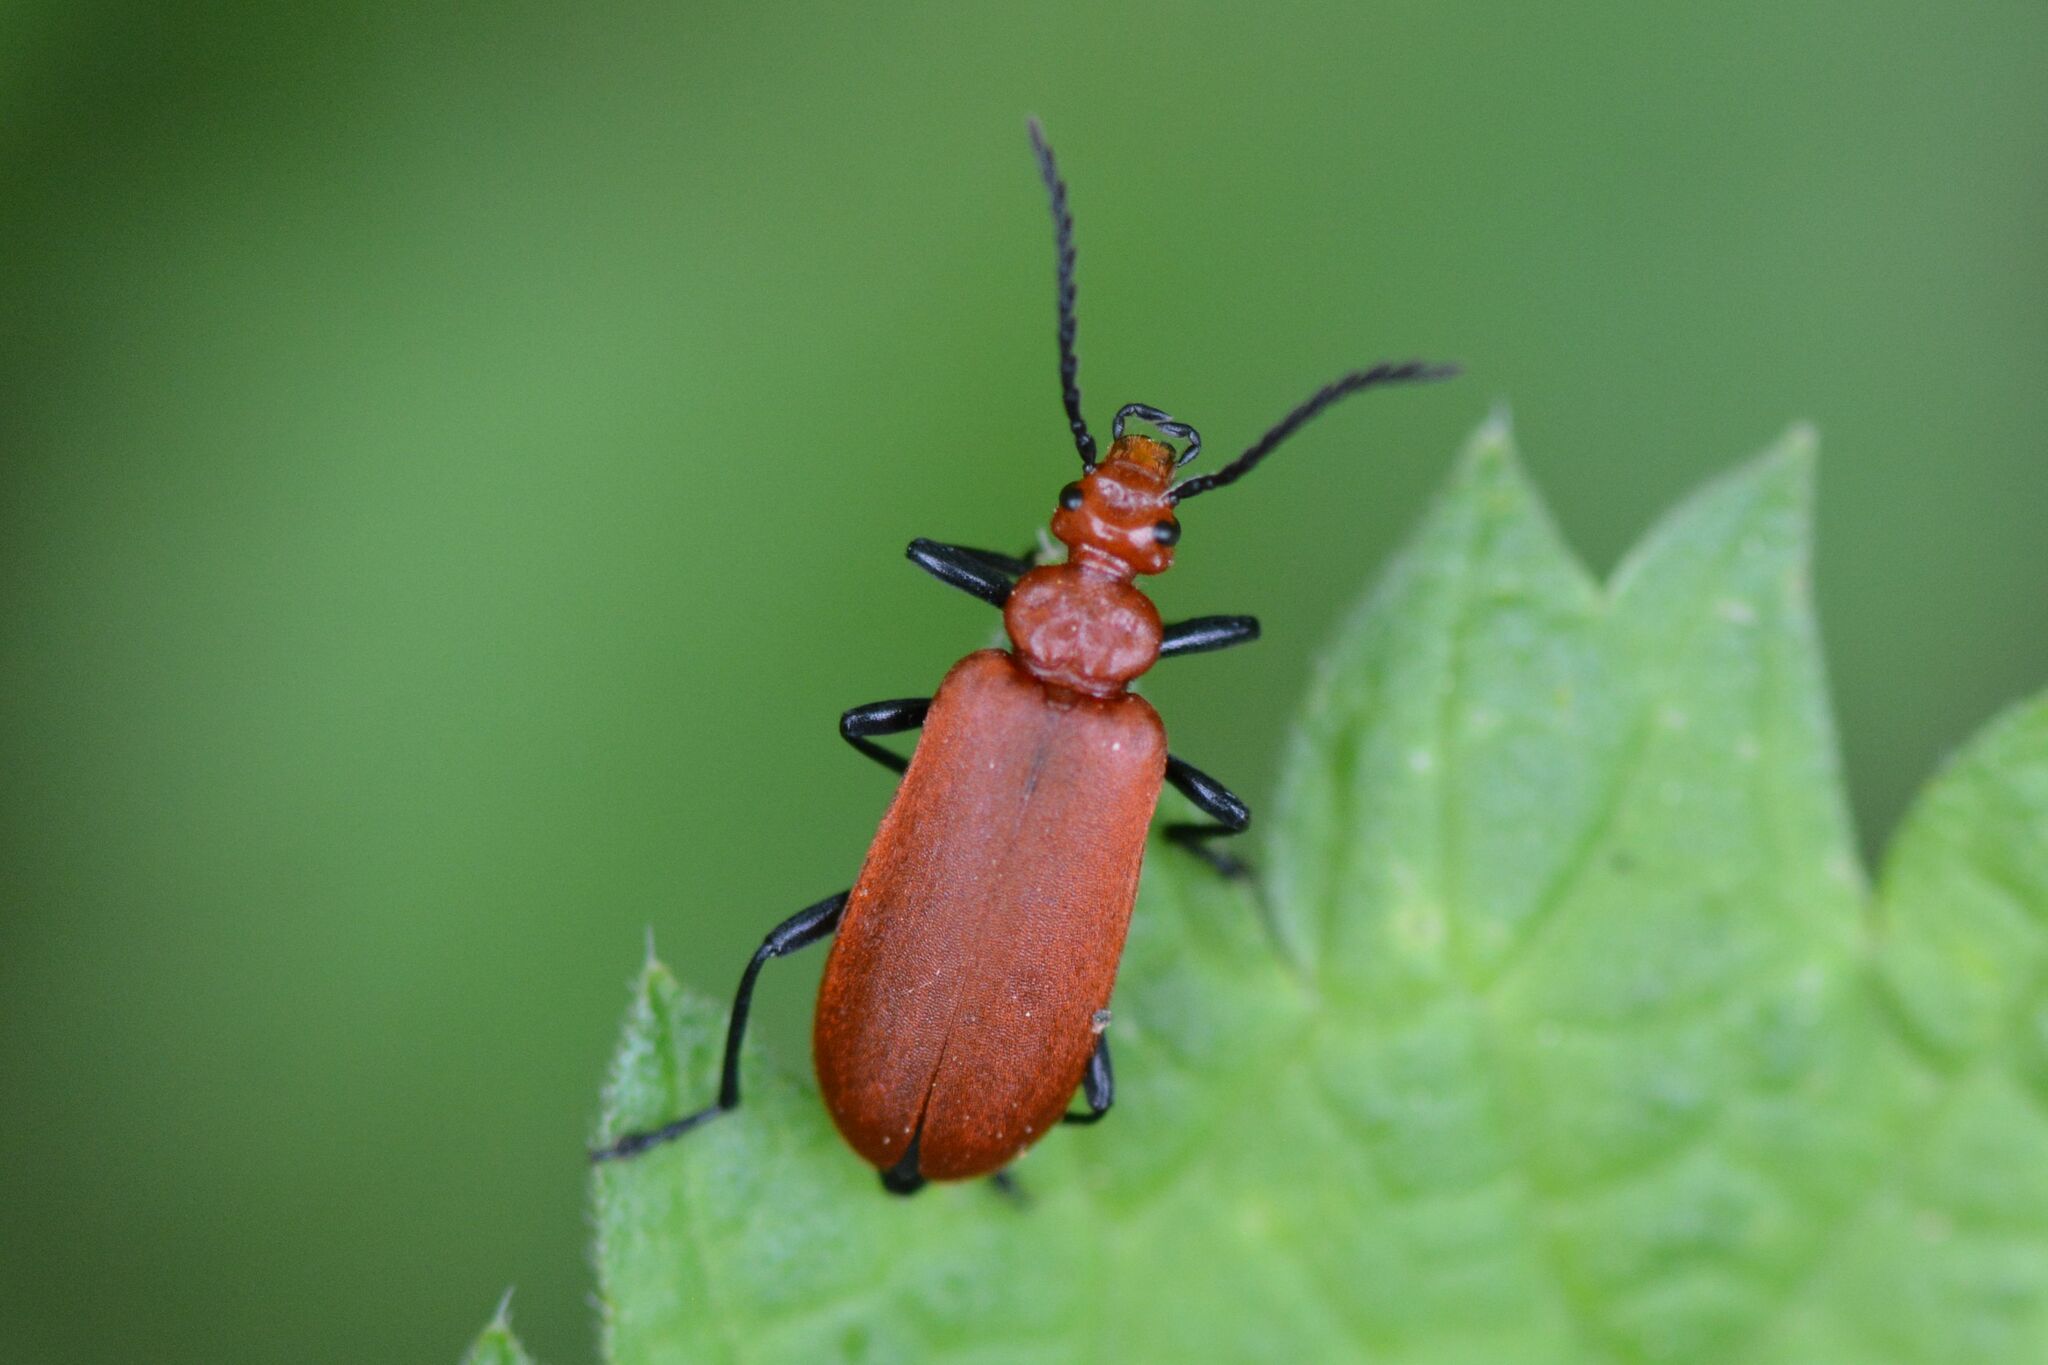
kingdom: Animalia
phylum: Arthropoda
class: Insecta
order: Coleoptera
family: Pyrochroidae
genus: Pyrochroa
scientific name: Pyrochroa serraticornis
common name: Red-headed cardinal beetle
